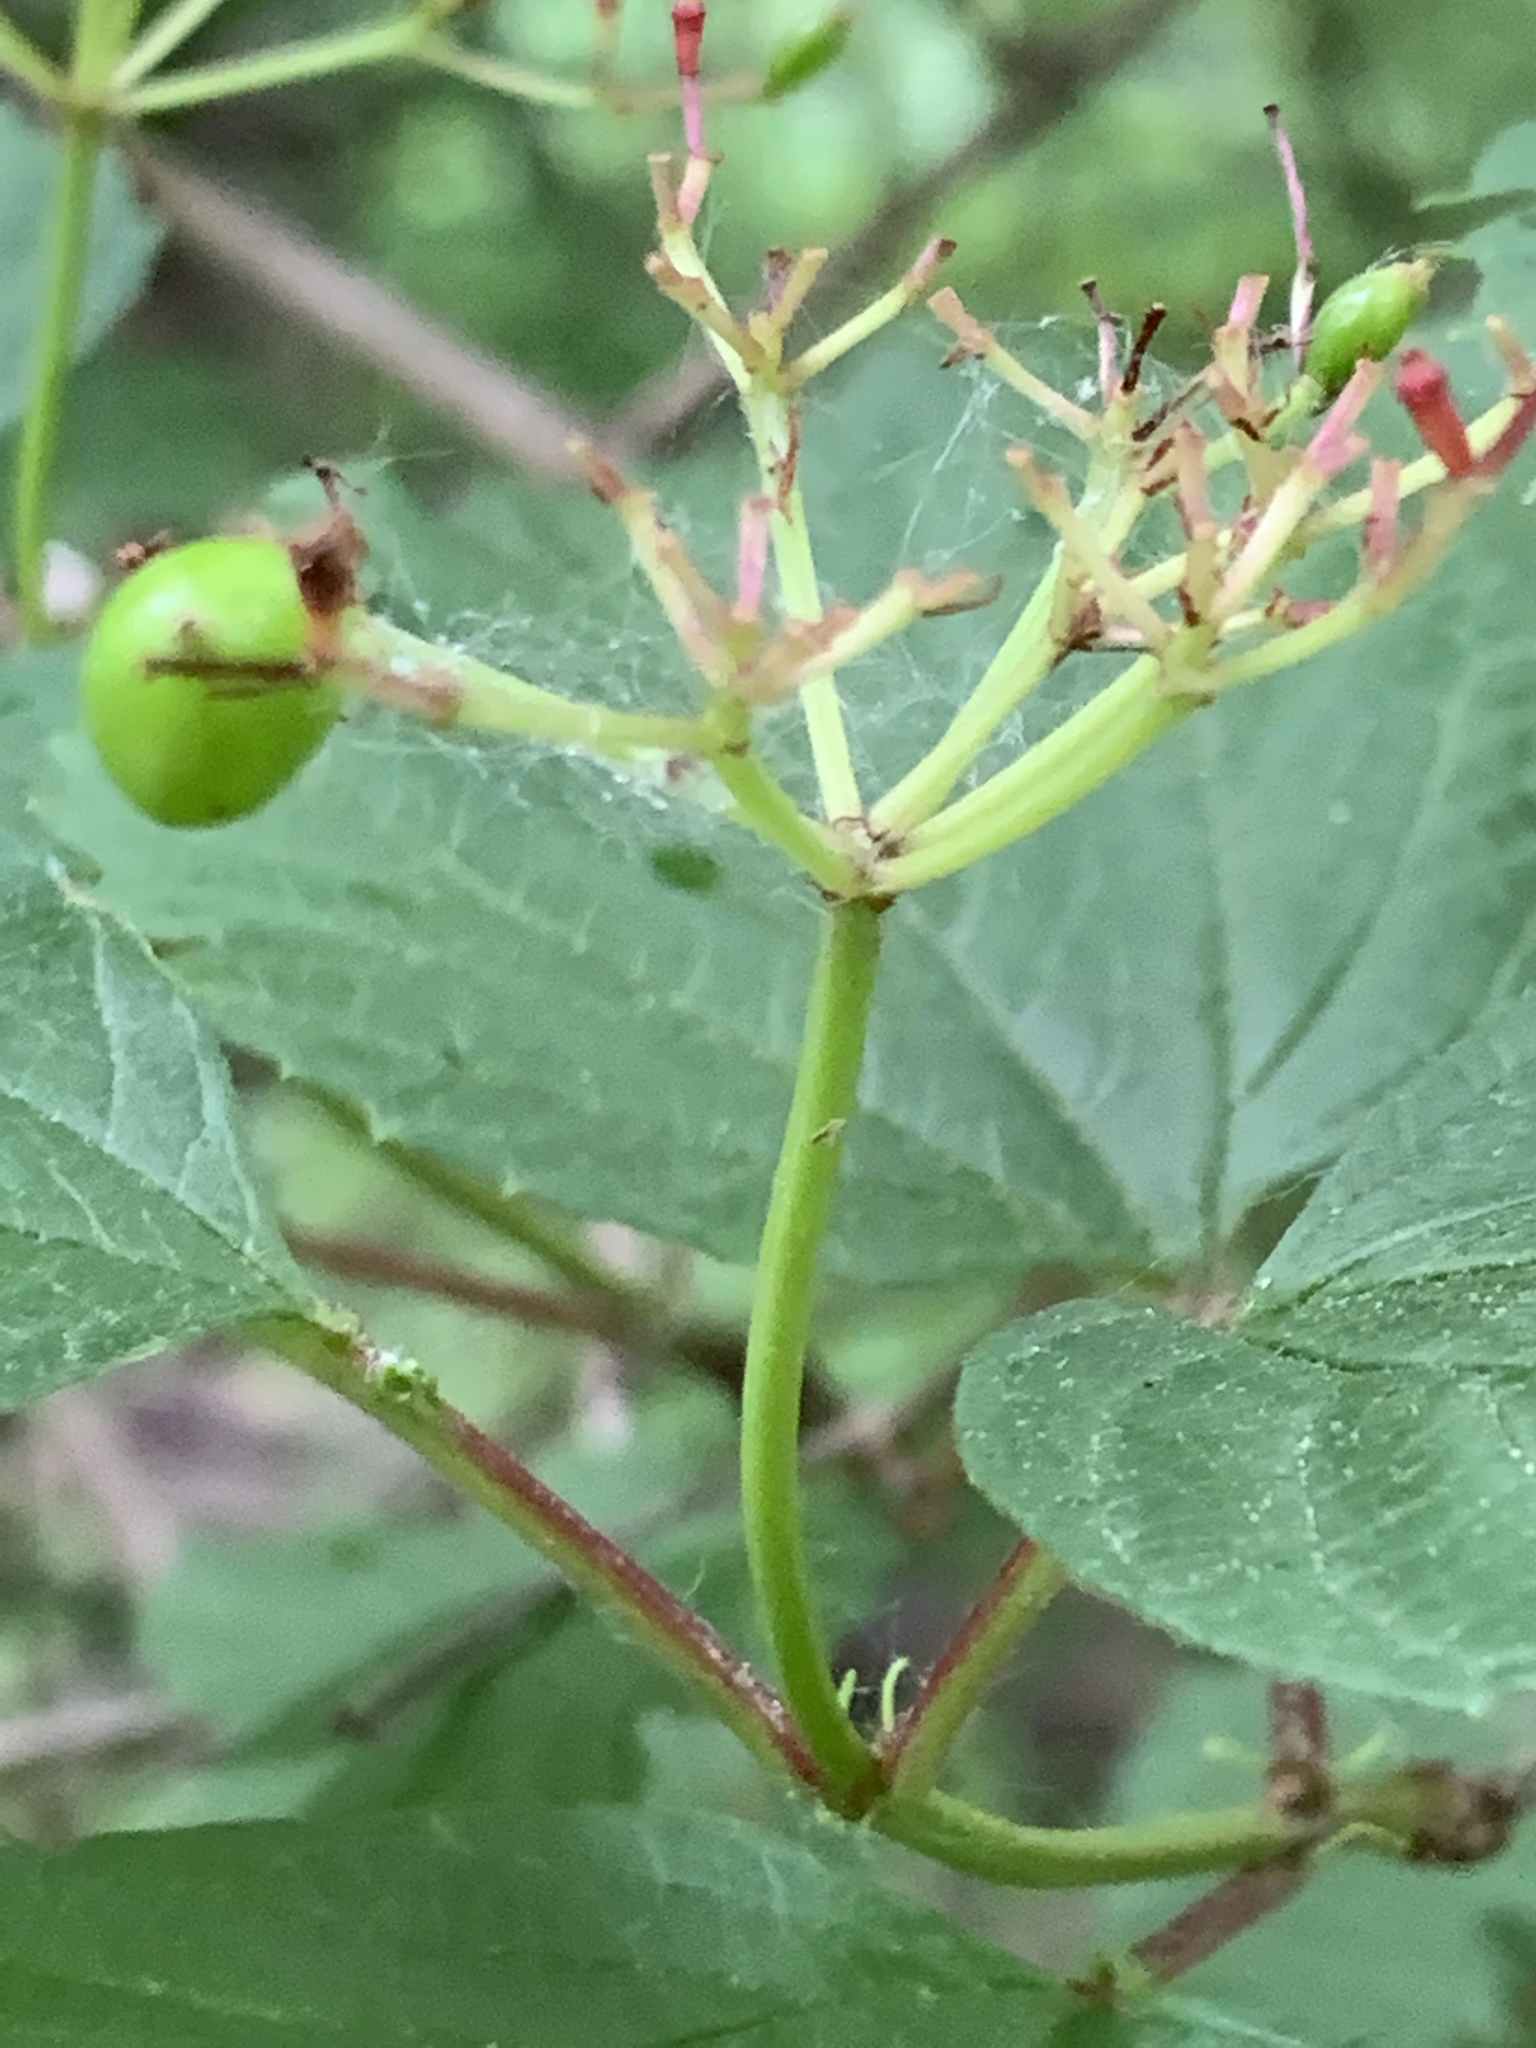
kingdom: Plantae
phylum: Tracheophyta
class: Magnoliopsida
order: Dipsacales
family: Viburnaceae
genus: Viburnum
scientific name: Viburnum opulus
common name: Guelder-rose
